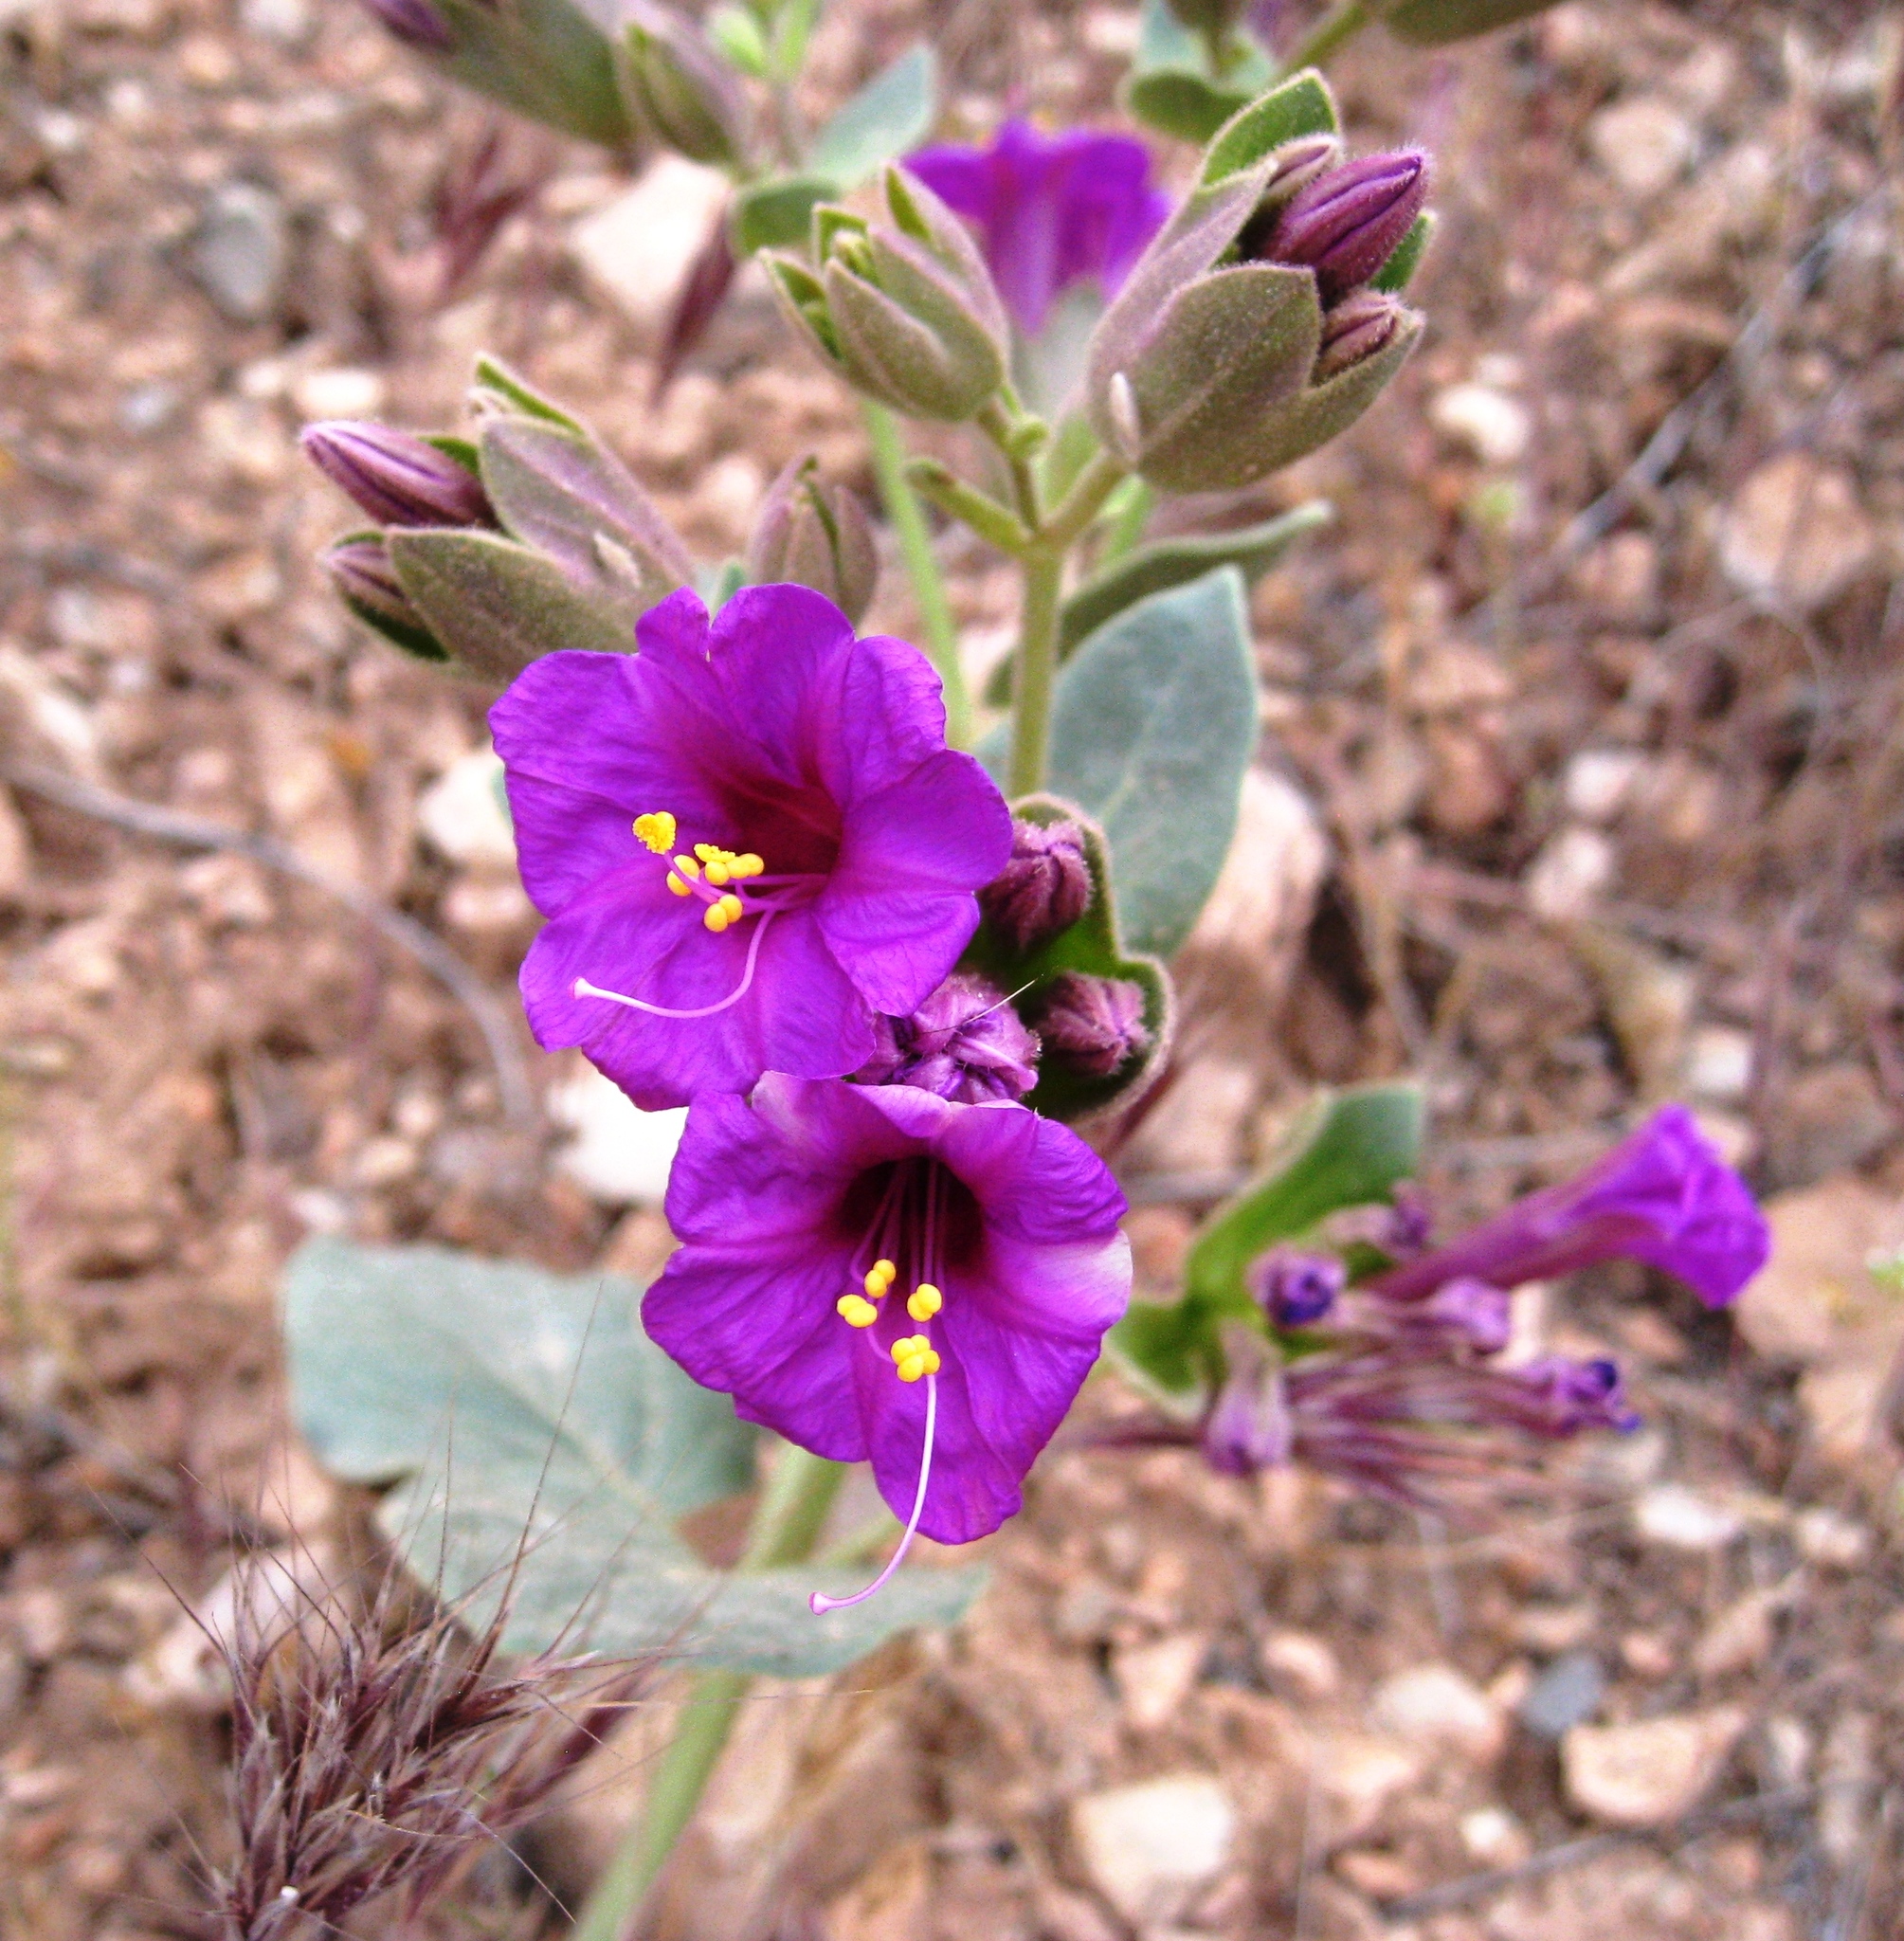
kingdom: Plantae
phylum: Tracheophyta
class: Magnoliopsida
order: Caryophyllales
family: Nyctaginaceae
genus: Mirabilis
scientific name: Mirabilis multiflora
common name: Froebel's four-o'clock
